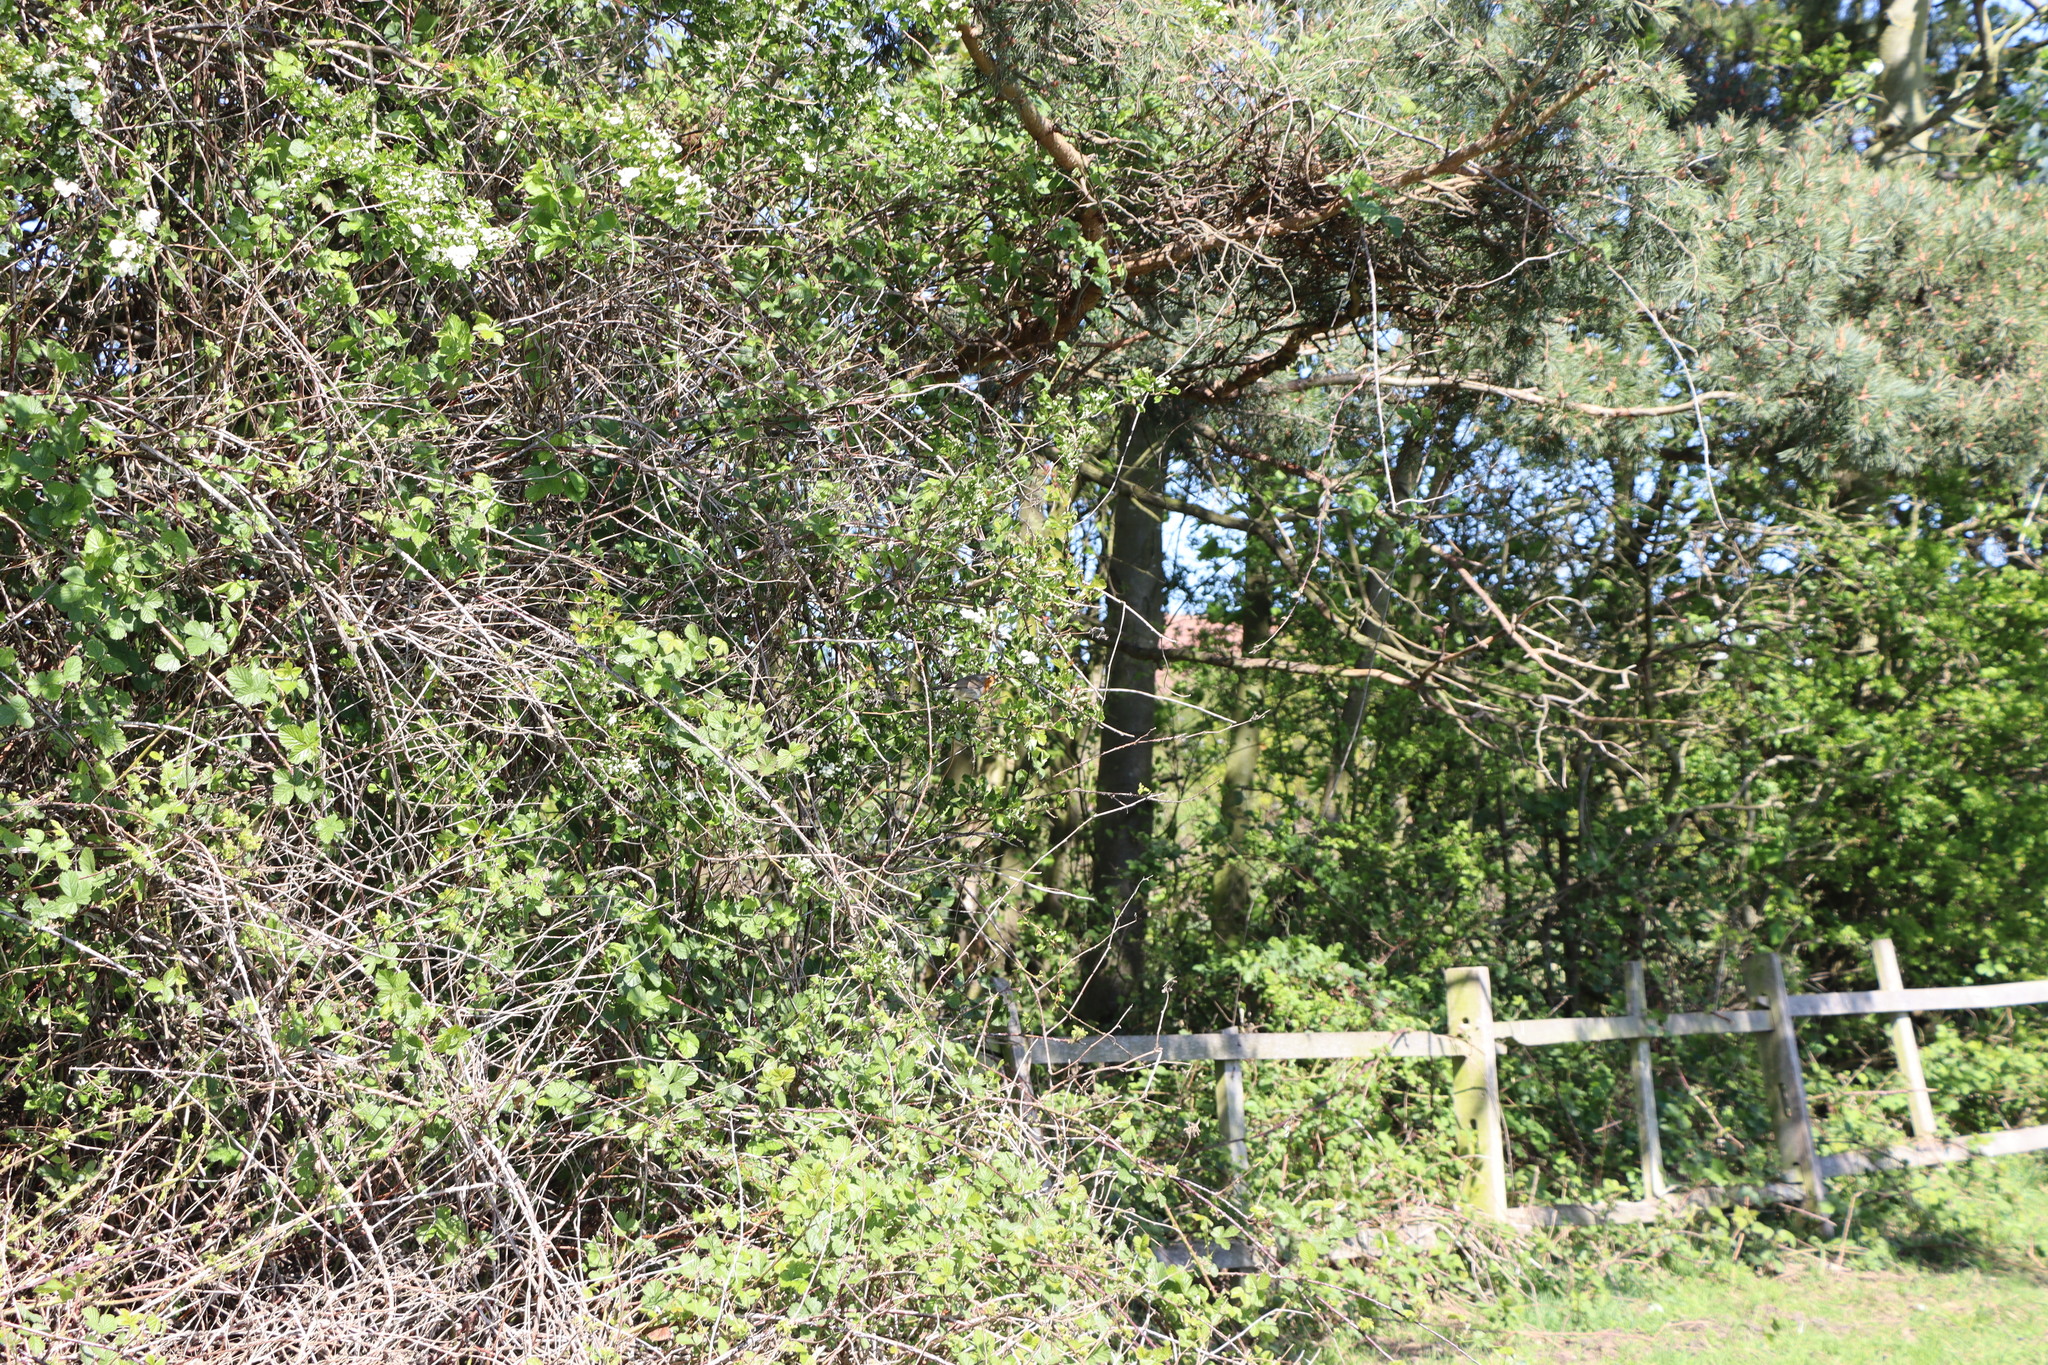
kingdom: Animalia
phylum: Chordata
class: Aves
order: Passeriformes
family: Muscicapidae
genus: Erithacus
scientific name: Erithacus rubecula
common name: European robin
